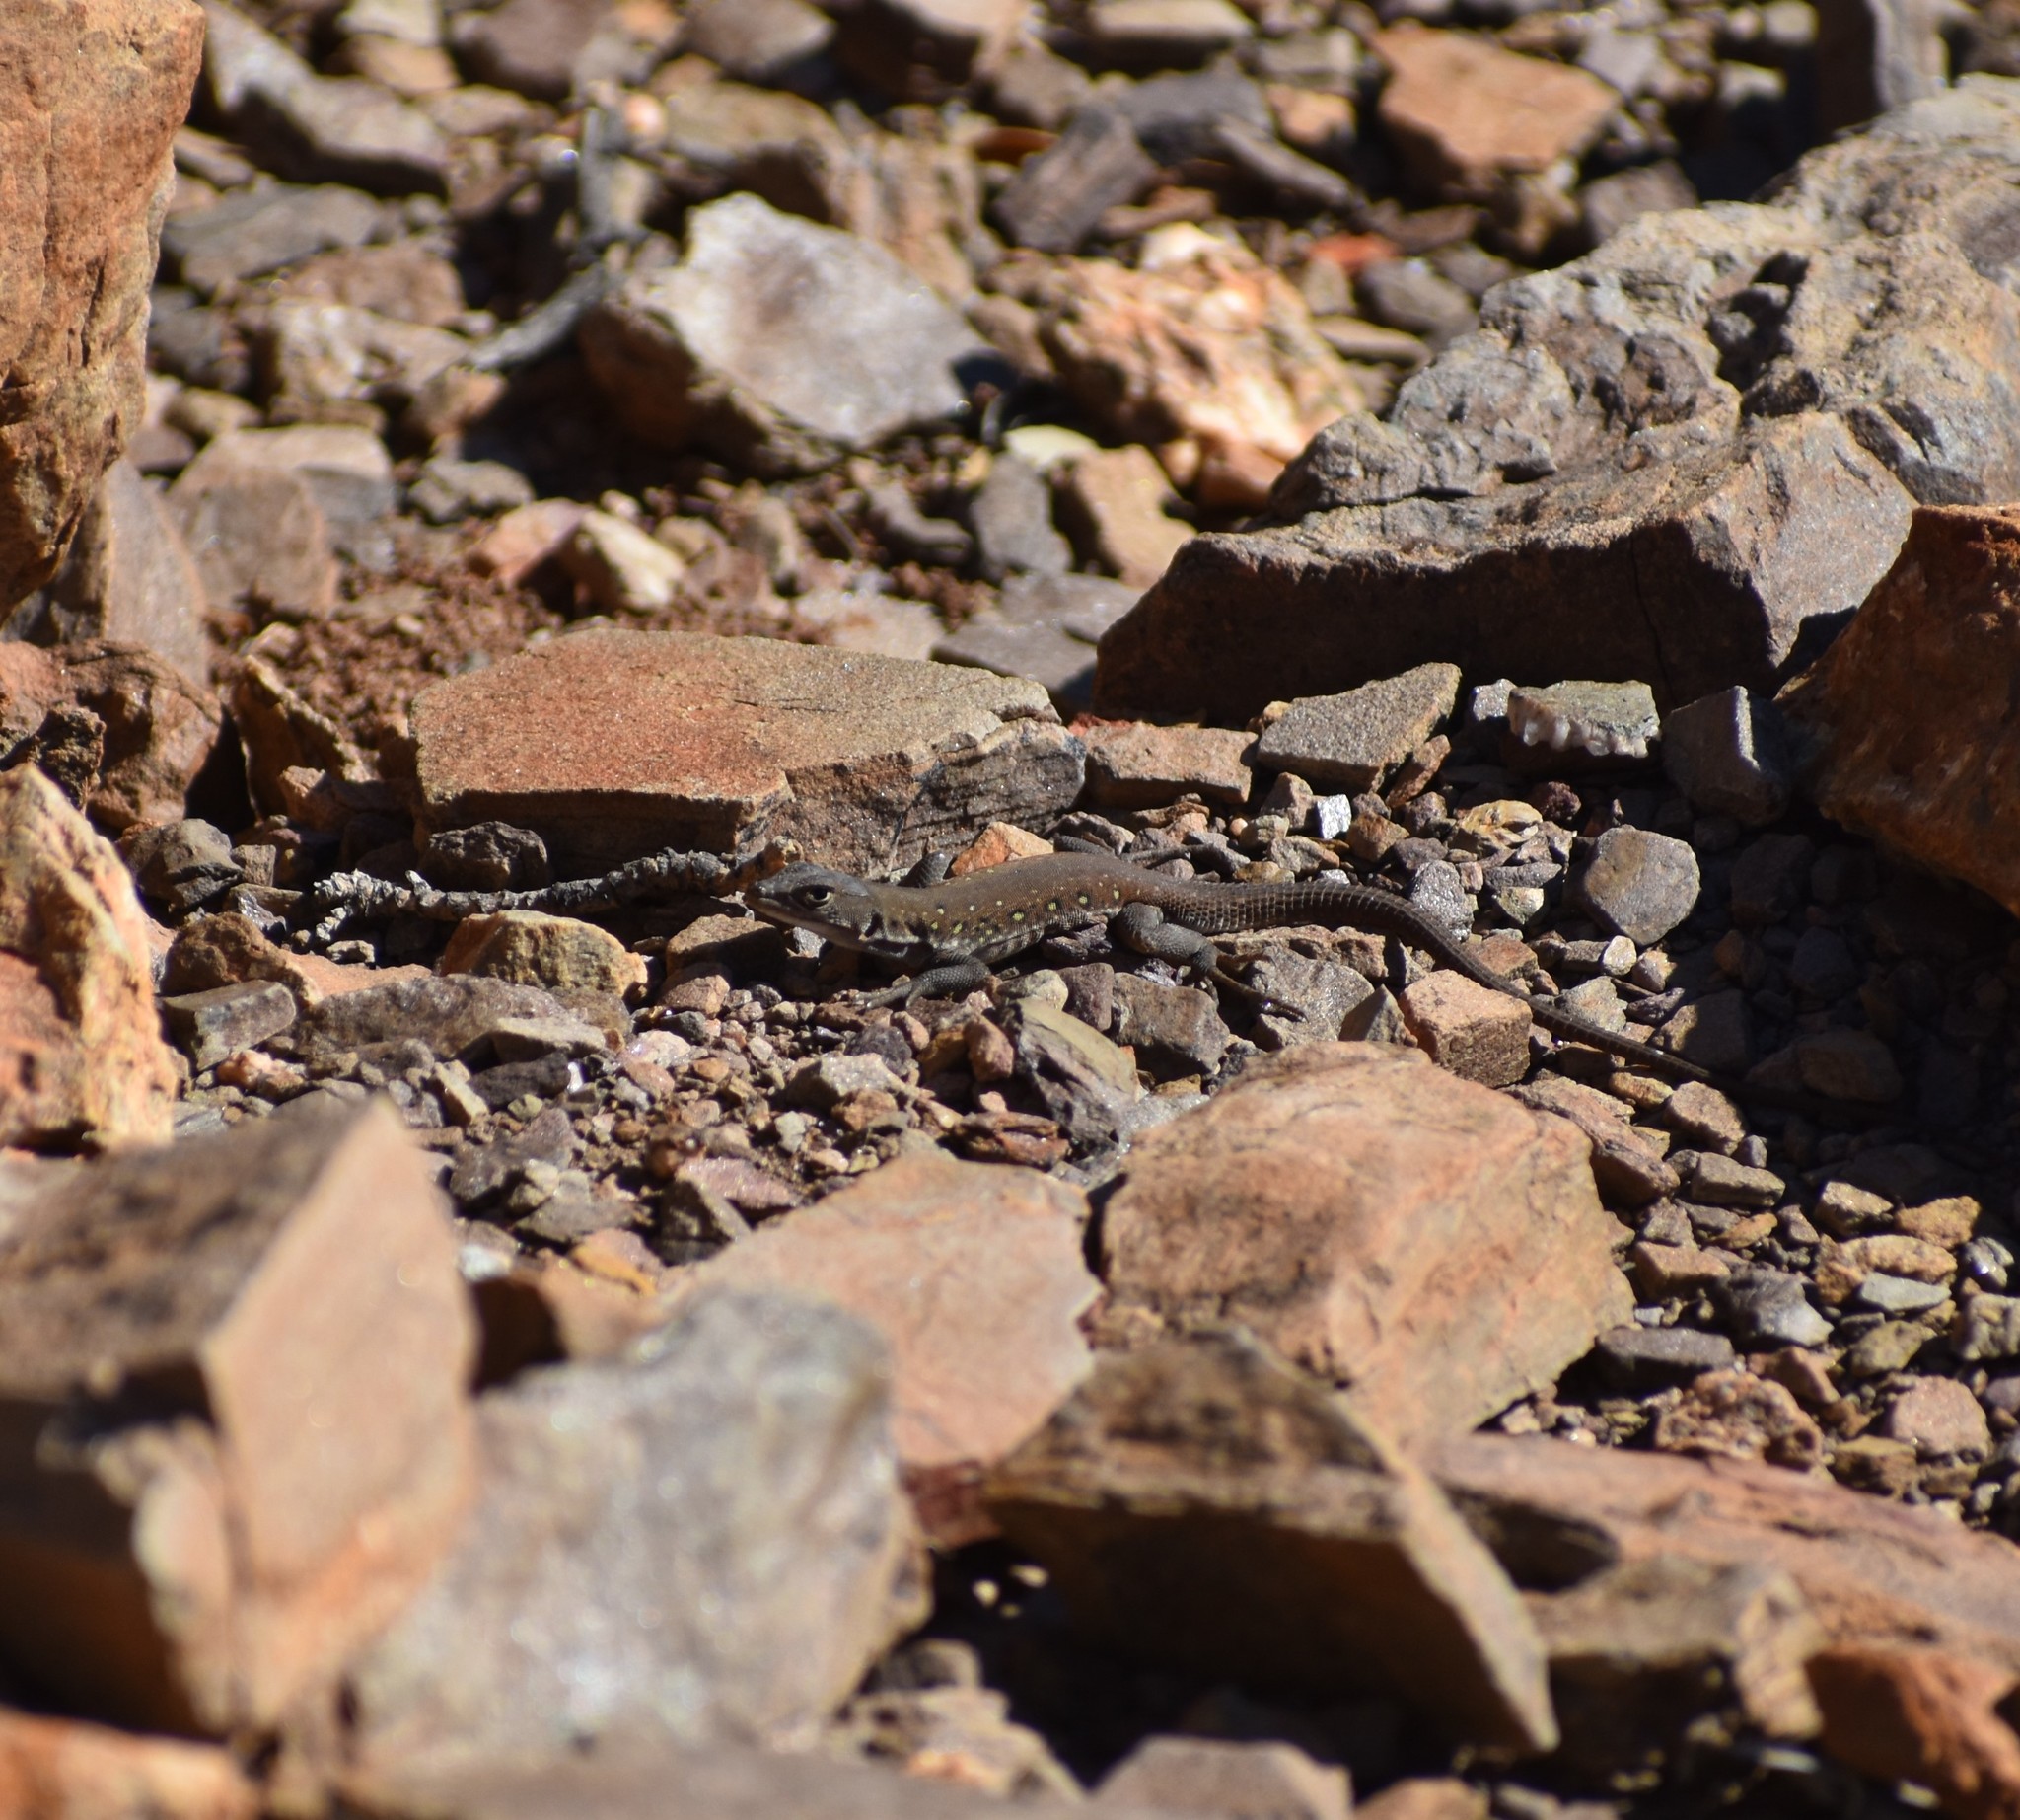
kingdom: Animalia
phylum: Chordata
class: Squamata
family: Lacertidae
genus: Pedioplanis
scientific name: Pedioplanis lineoocellata
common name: Spotted sand lizard
